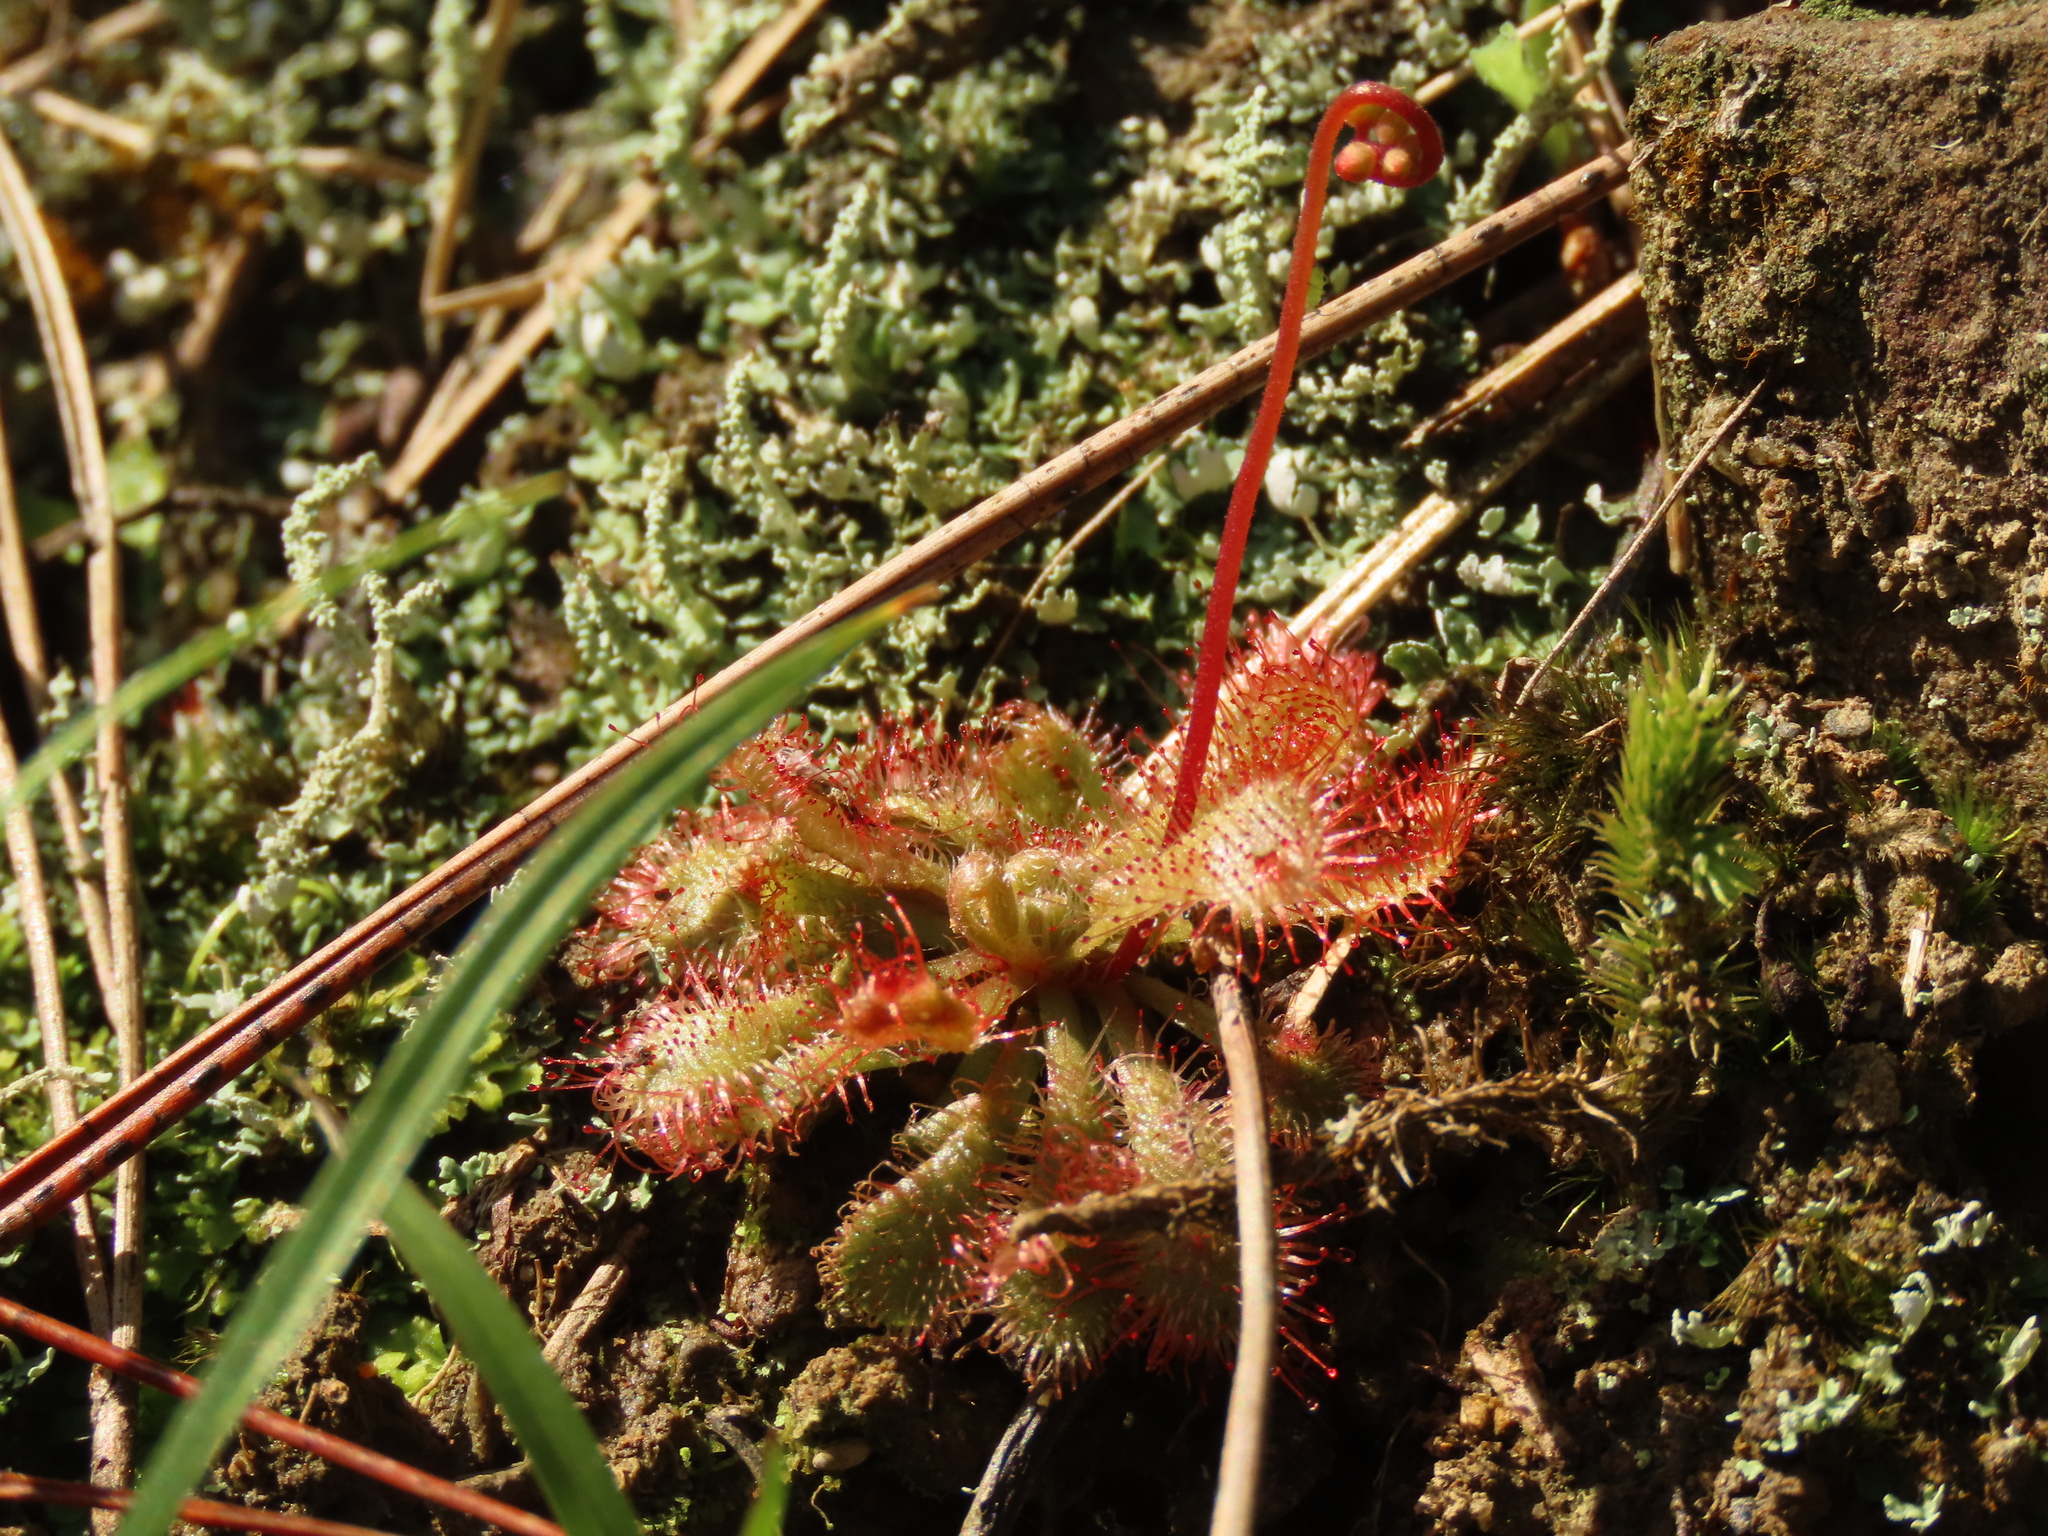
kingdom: Plantae
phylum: Tracheophyta
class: Magnoliopsida
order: Caryophyllales
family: Droseraceae
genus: Drosera
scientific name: Drosera spatulata
